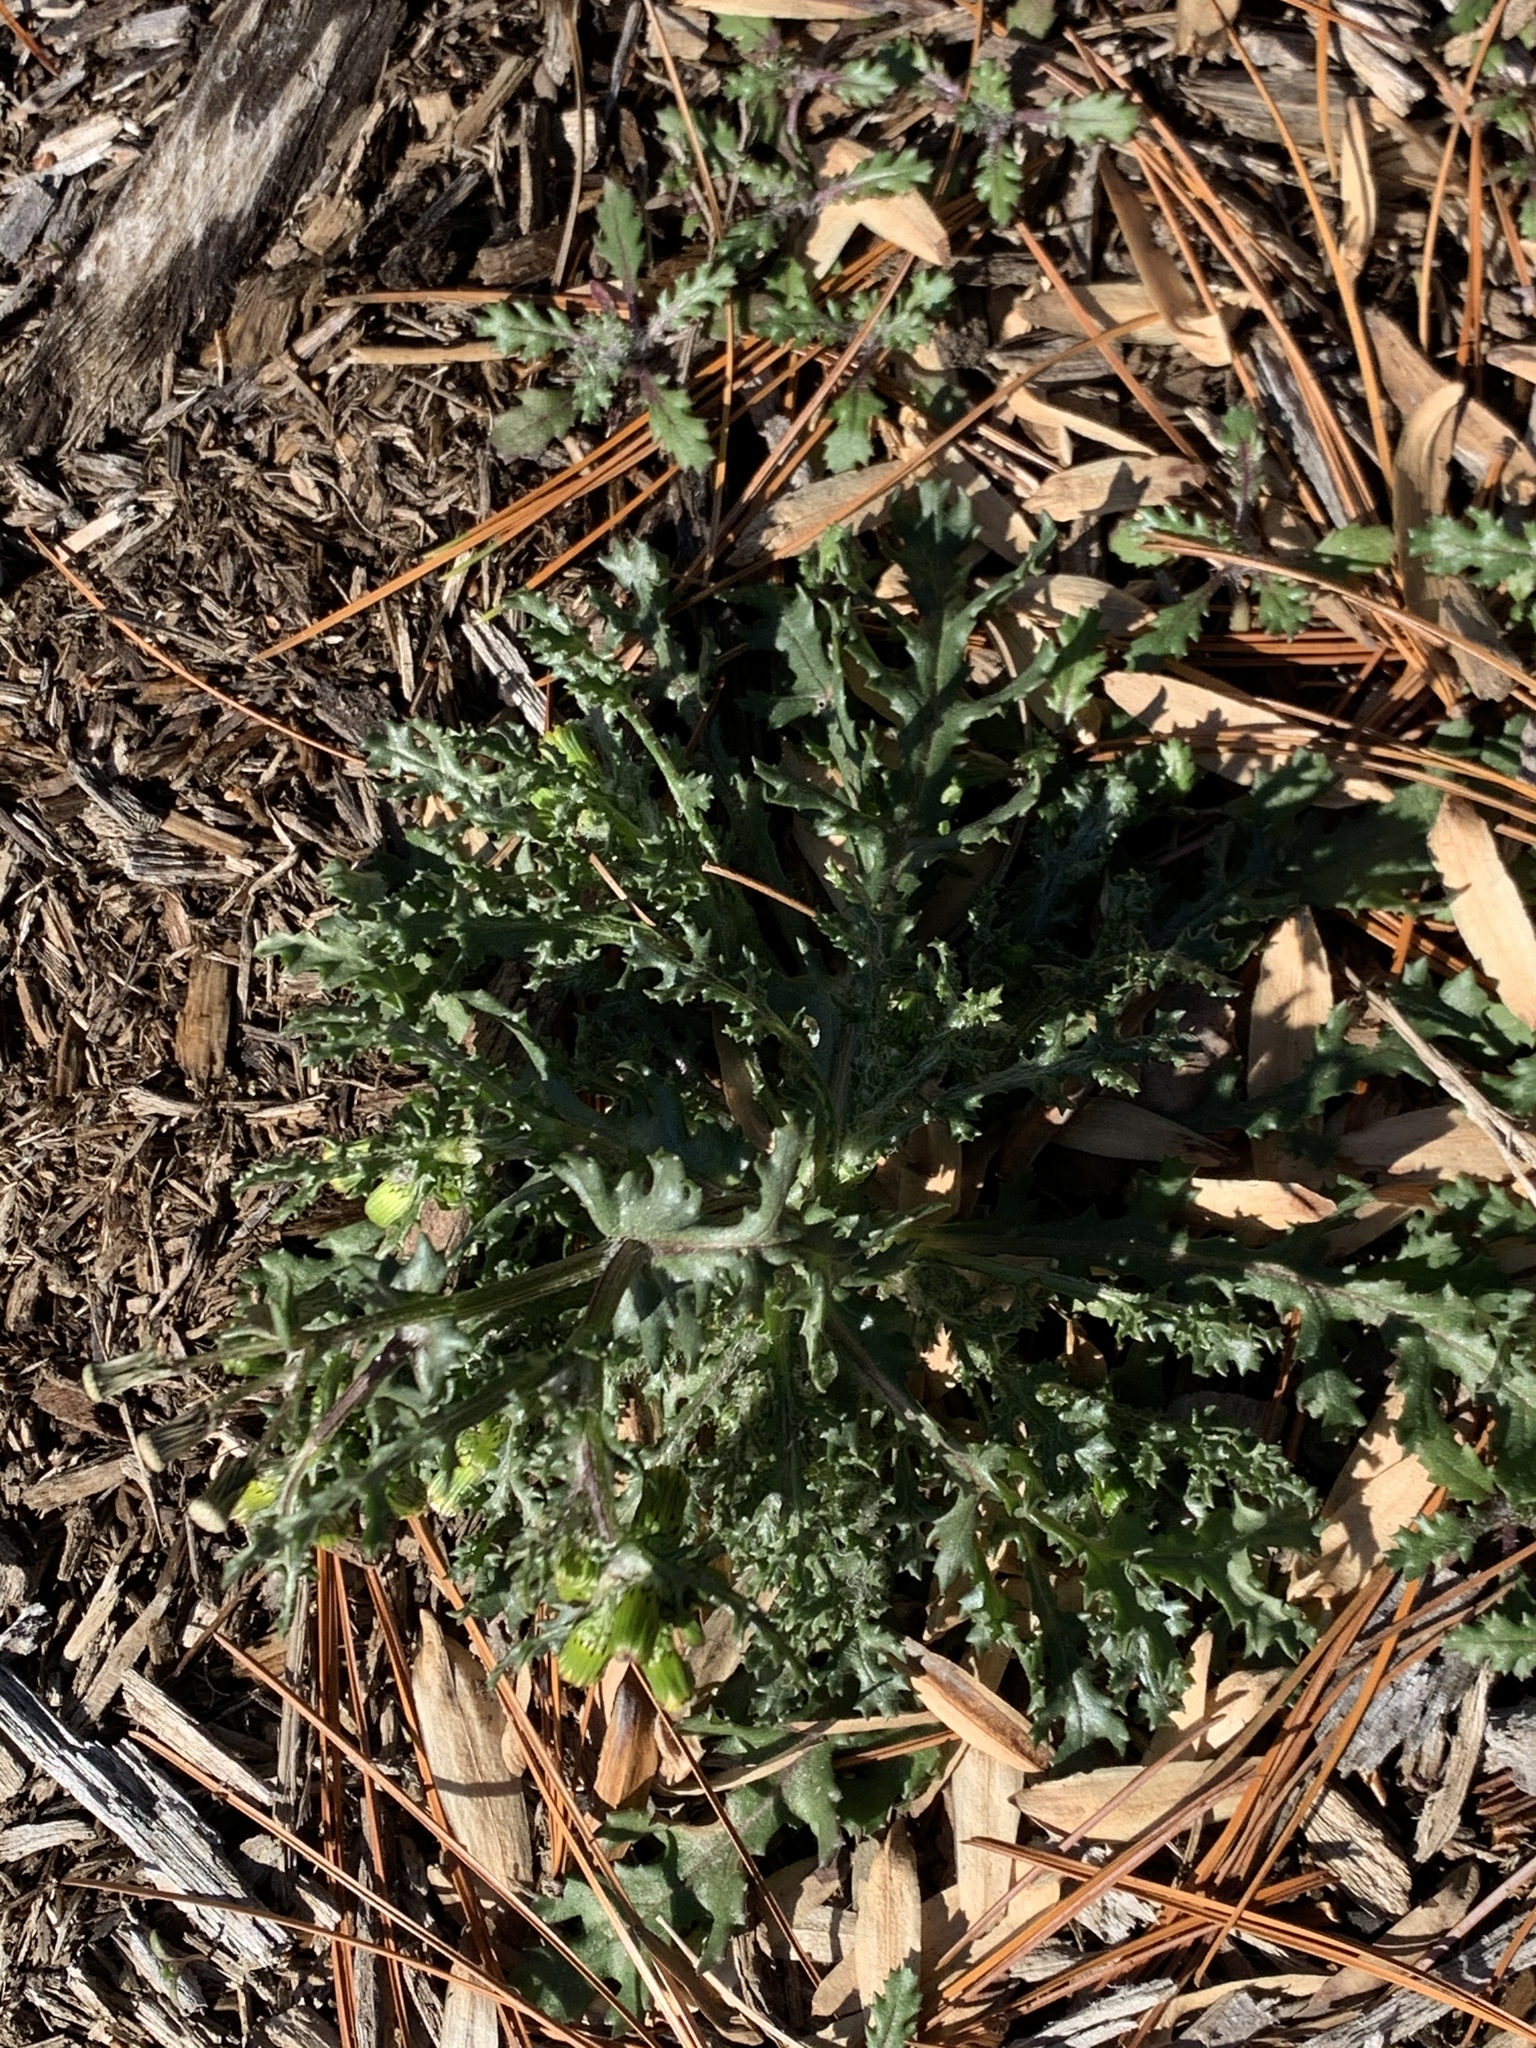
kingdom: Plantae
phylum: Tracheophyta
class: Magnoliopsida
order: Asterales
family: Asteraceae
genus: Senecio
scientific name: Senecio vulgaris
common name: Old-man-in-the-spring
